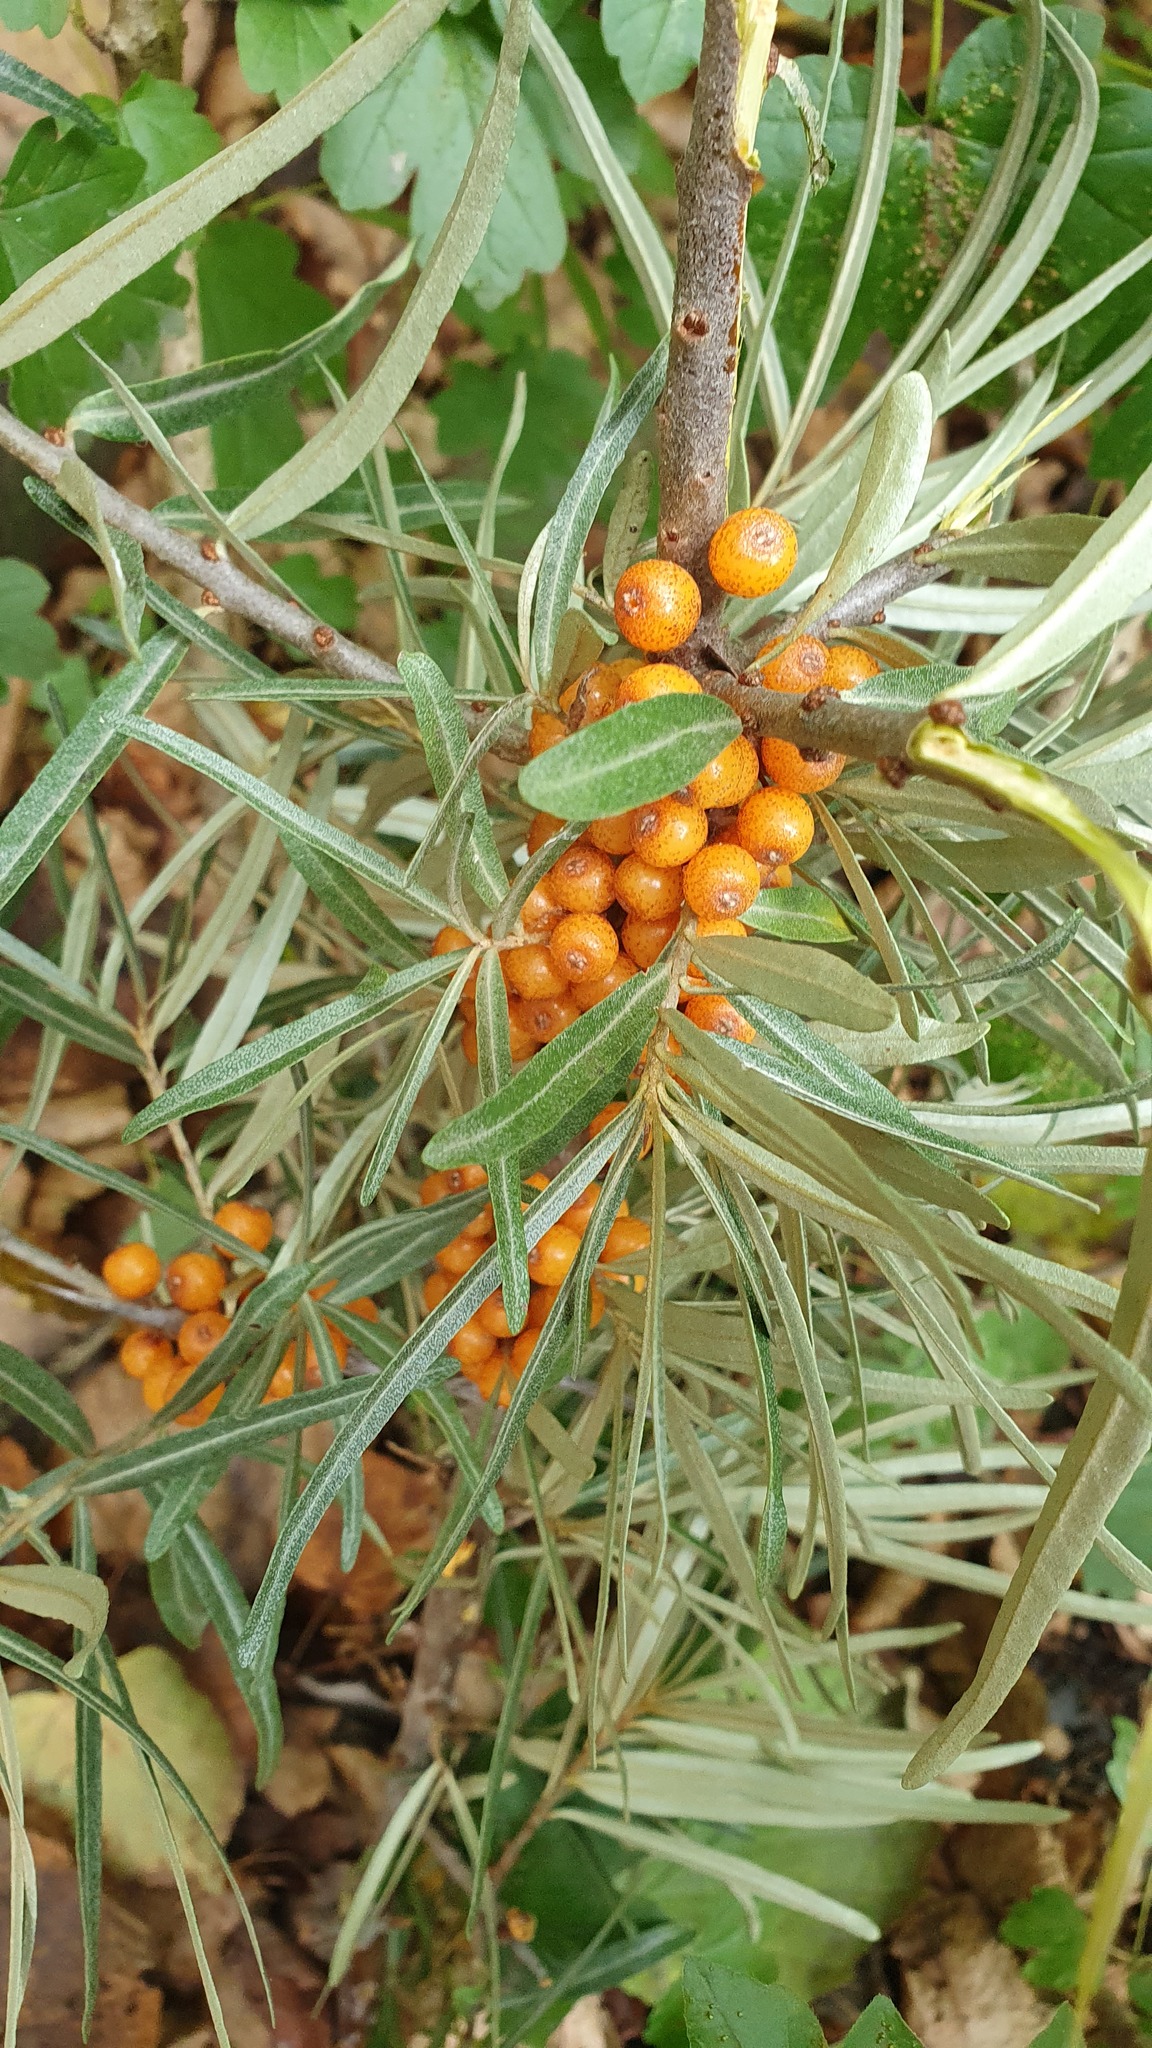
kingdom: Plantae
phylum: Tracheophyta
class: Magnoliopsida
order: Rosales
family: Elaeagnaceae
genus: Hippophae
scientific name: Hippophae rhamnoides
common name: Sea-buckthorn
